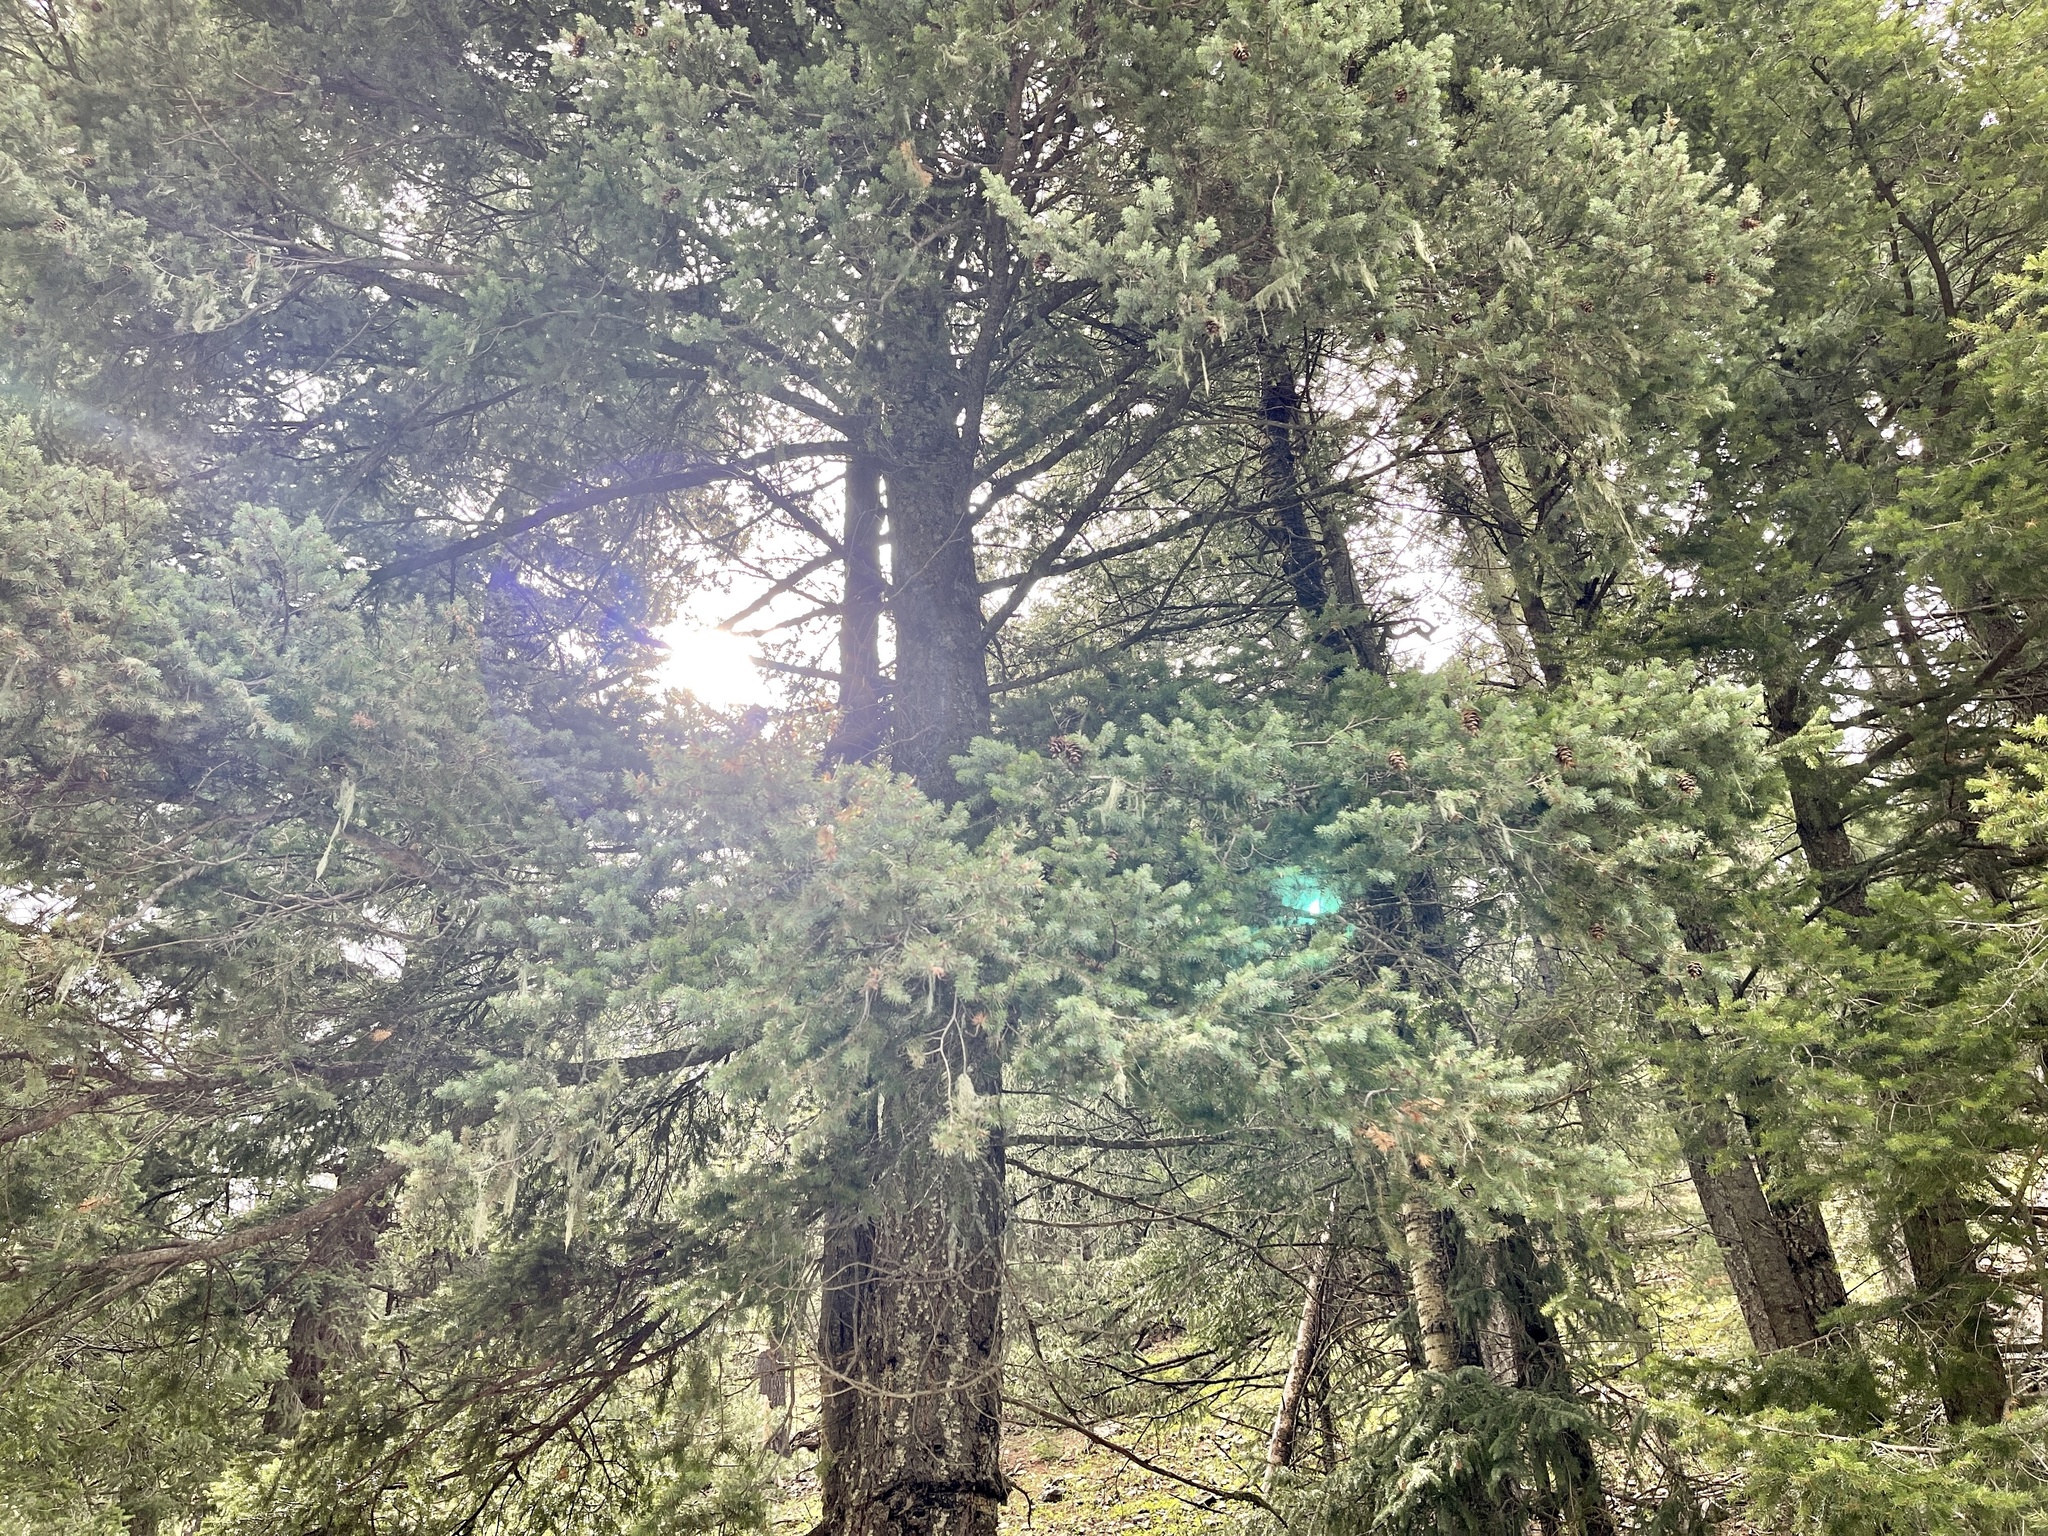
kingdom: Plantae
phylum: Tracheophyta
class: Pinopsida
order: Pinales
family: Pinaceae
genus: Pseudotsuga
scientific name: Pseudotsuga menziesii
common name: Douglas fir
